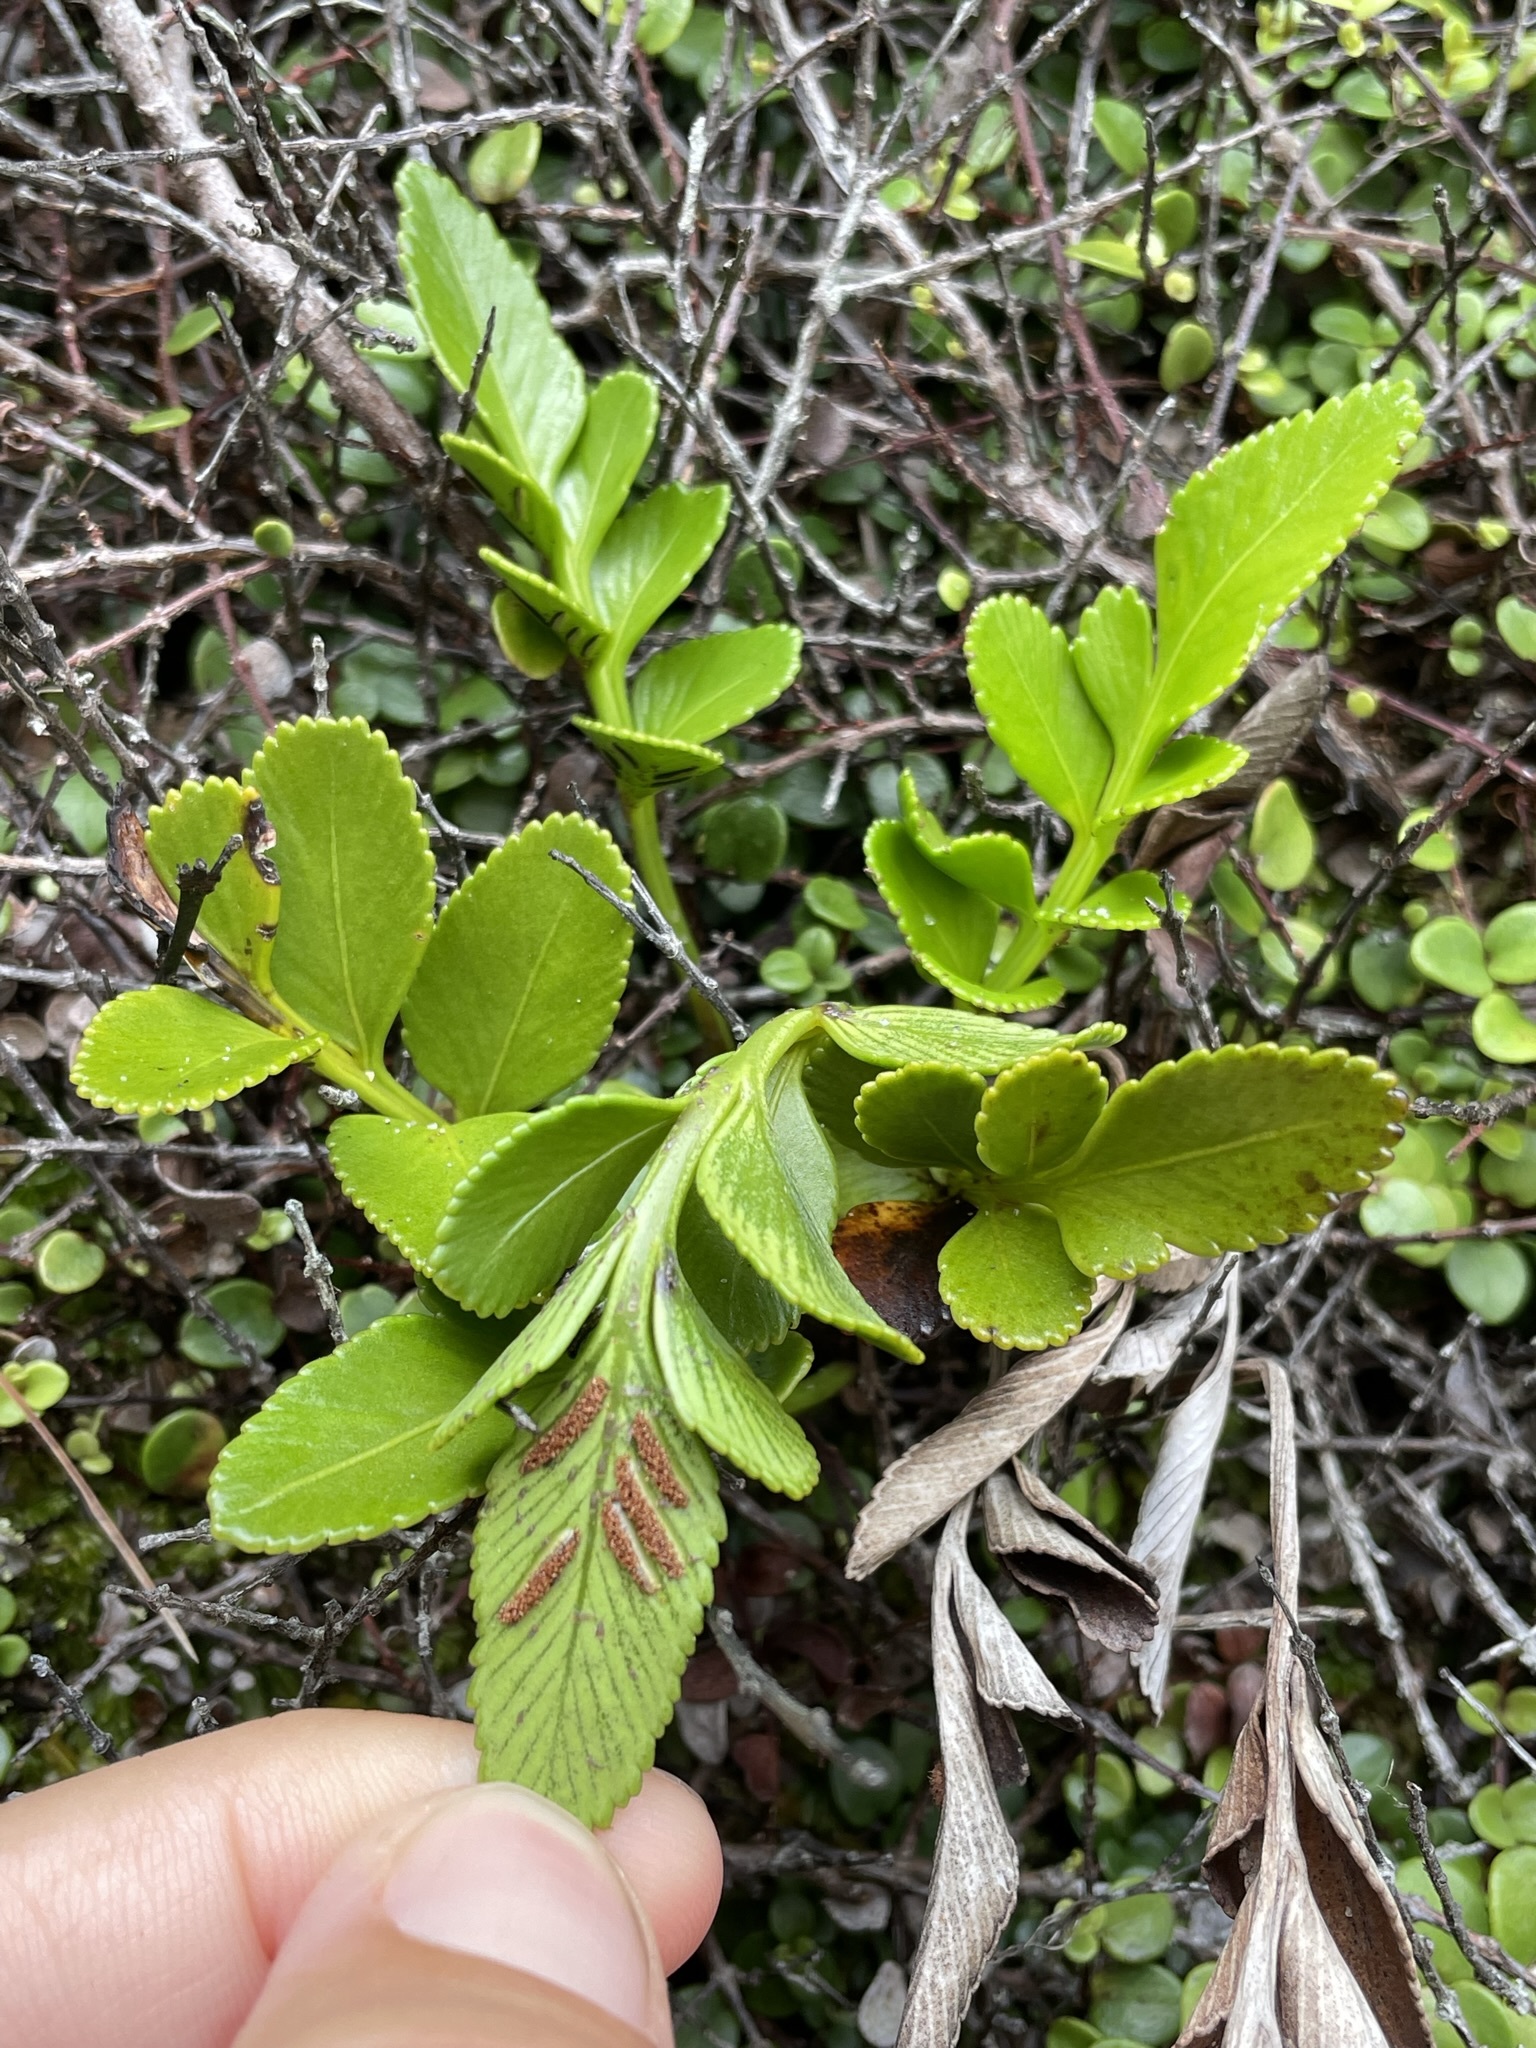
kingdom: Plantae
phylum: Tracheophyta
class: Polypodiopsida
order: Polypodiales
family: Aspleniaceae
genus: Asplenium
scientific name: Asplenium obtusatum
